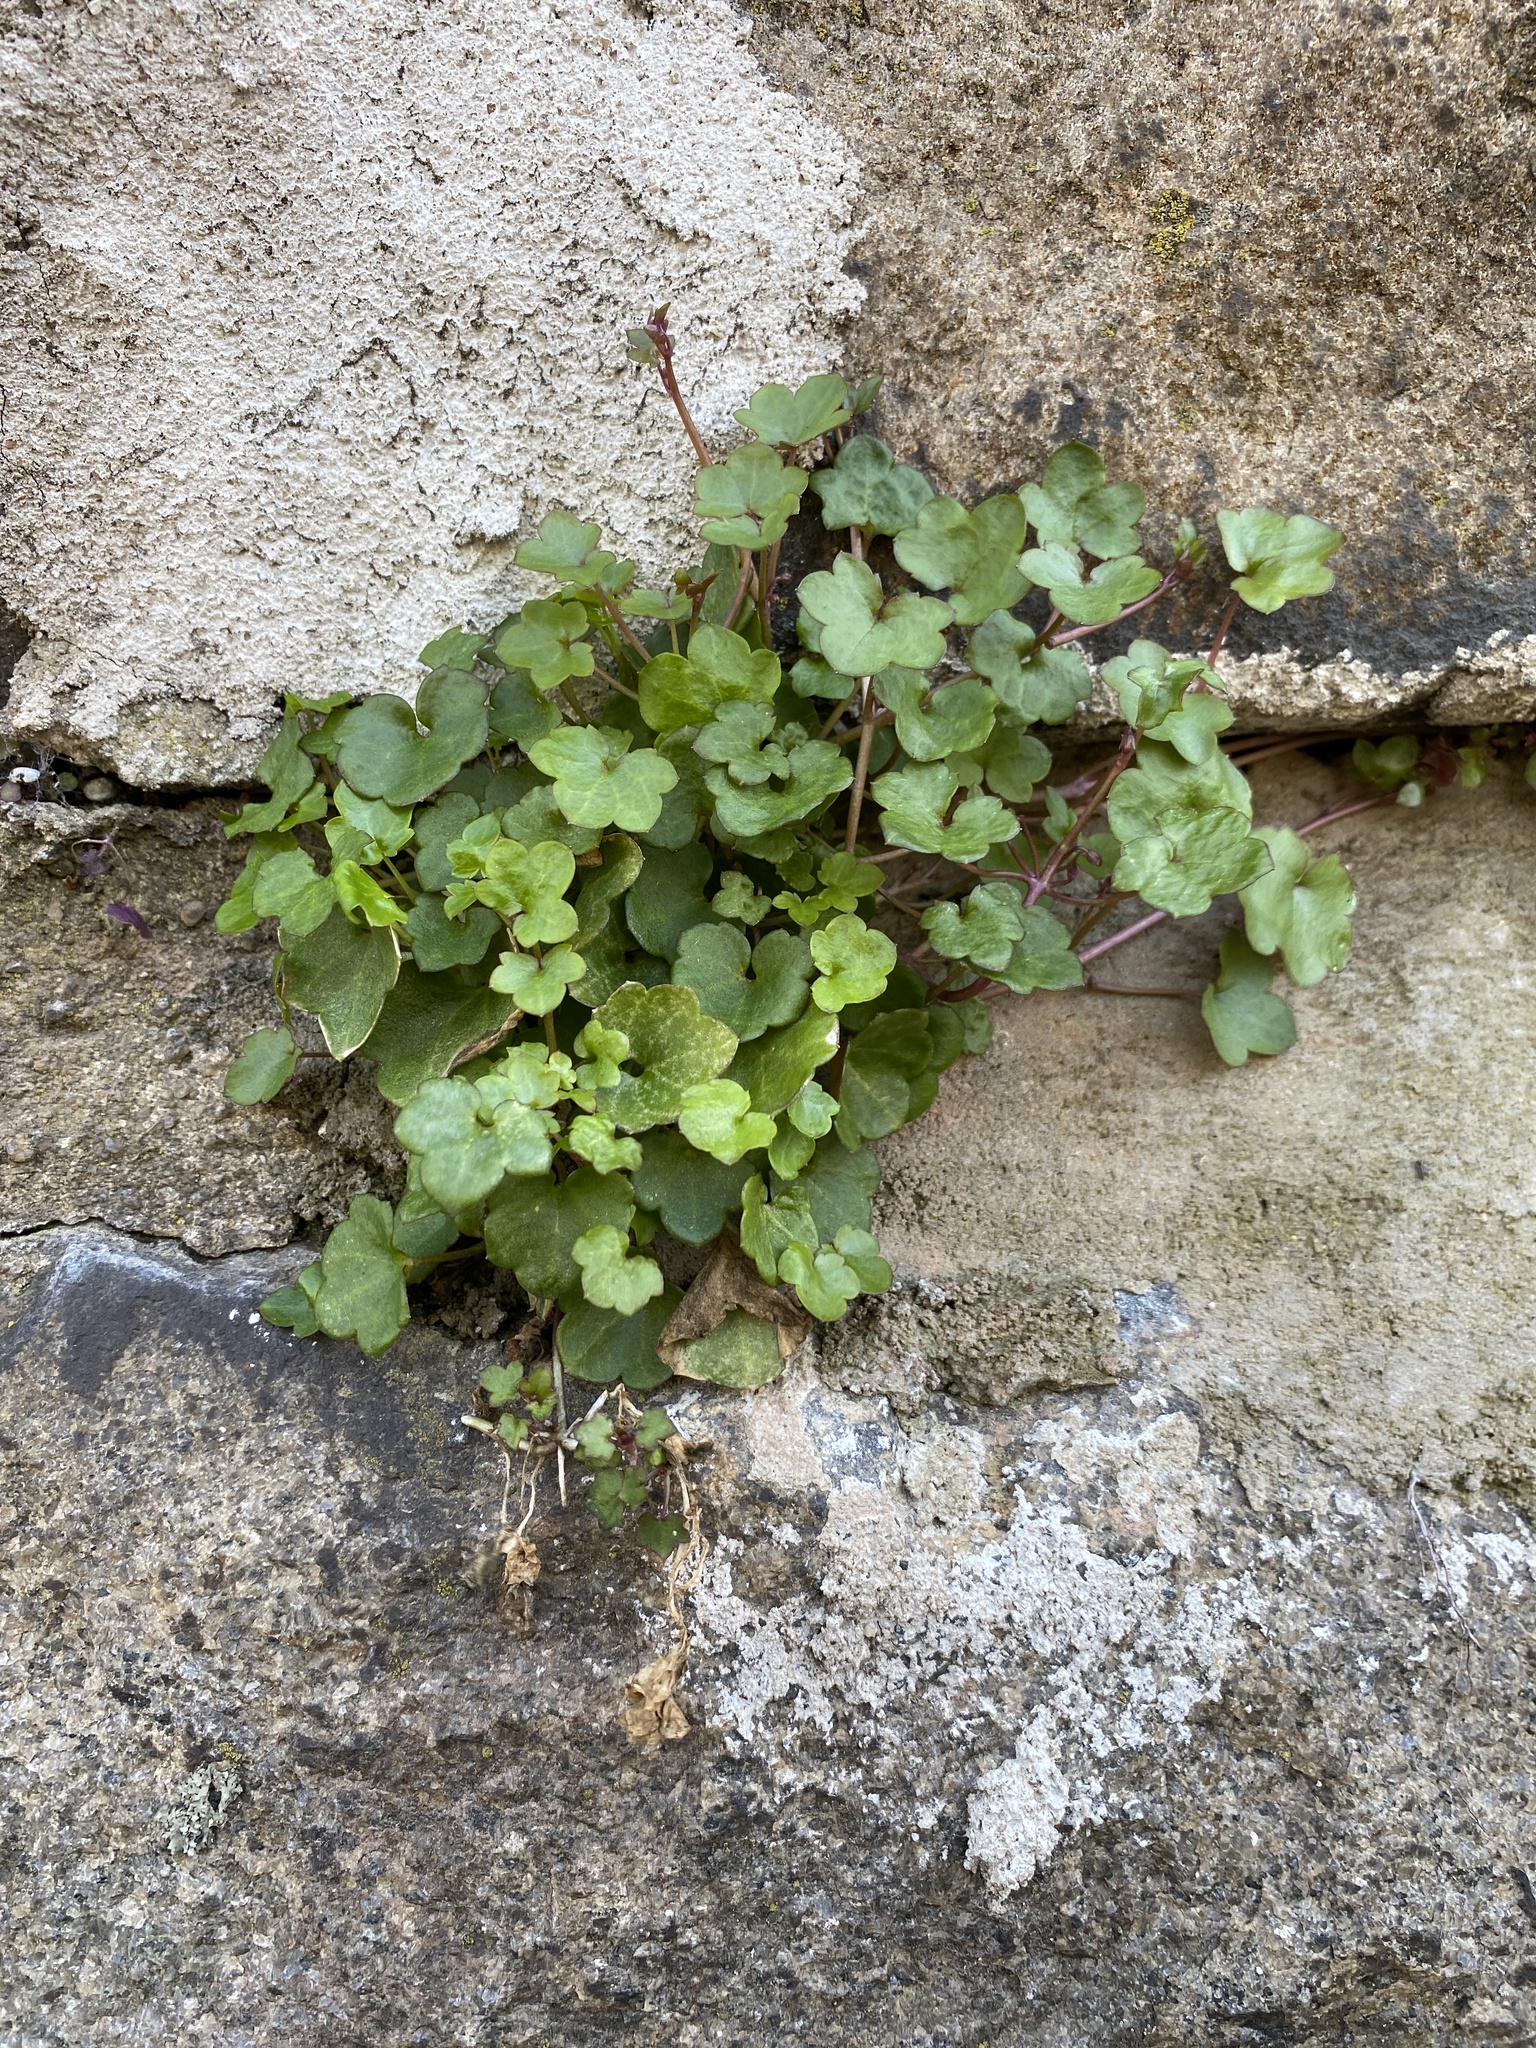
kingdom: Plantae
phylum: Tracheophyta
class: Magnoliopsida
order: Lamiales
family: Plantaginaceae
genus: Cymbalaria
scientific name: Cymbalaria muralis
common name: Ivy-leaved toadflax
